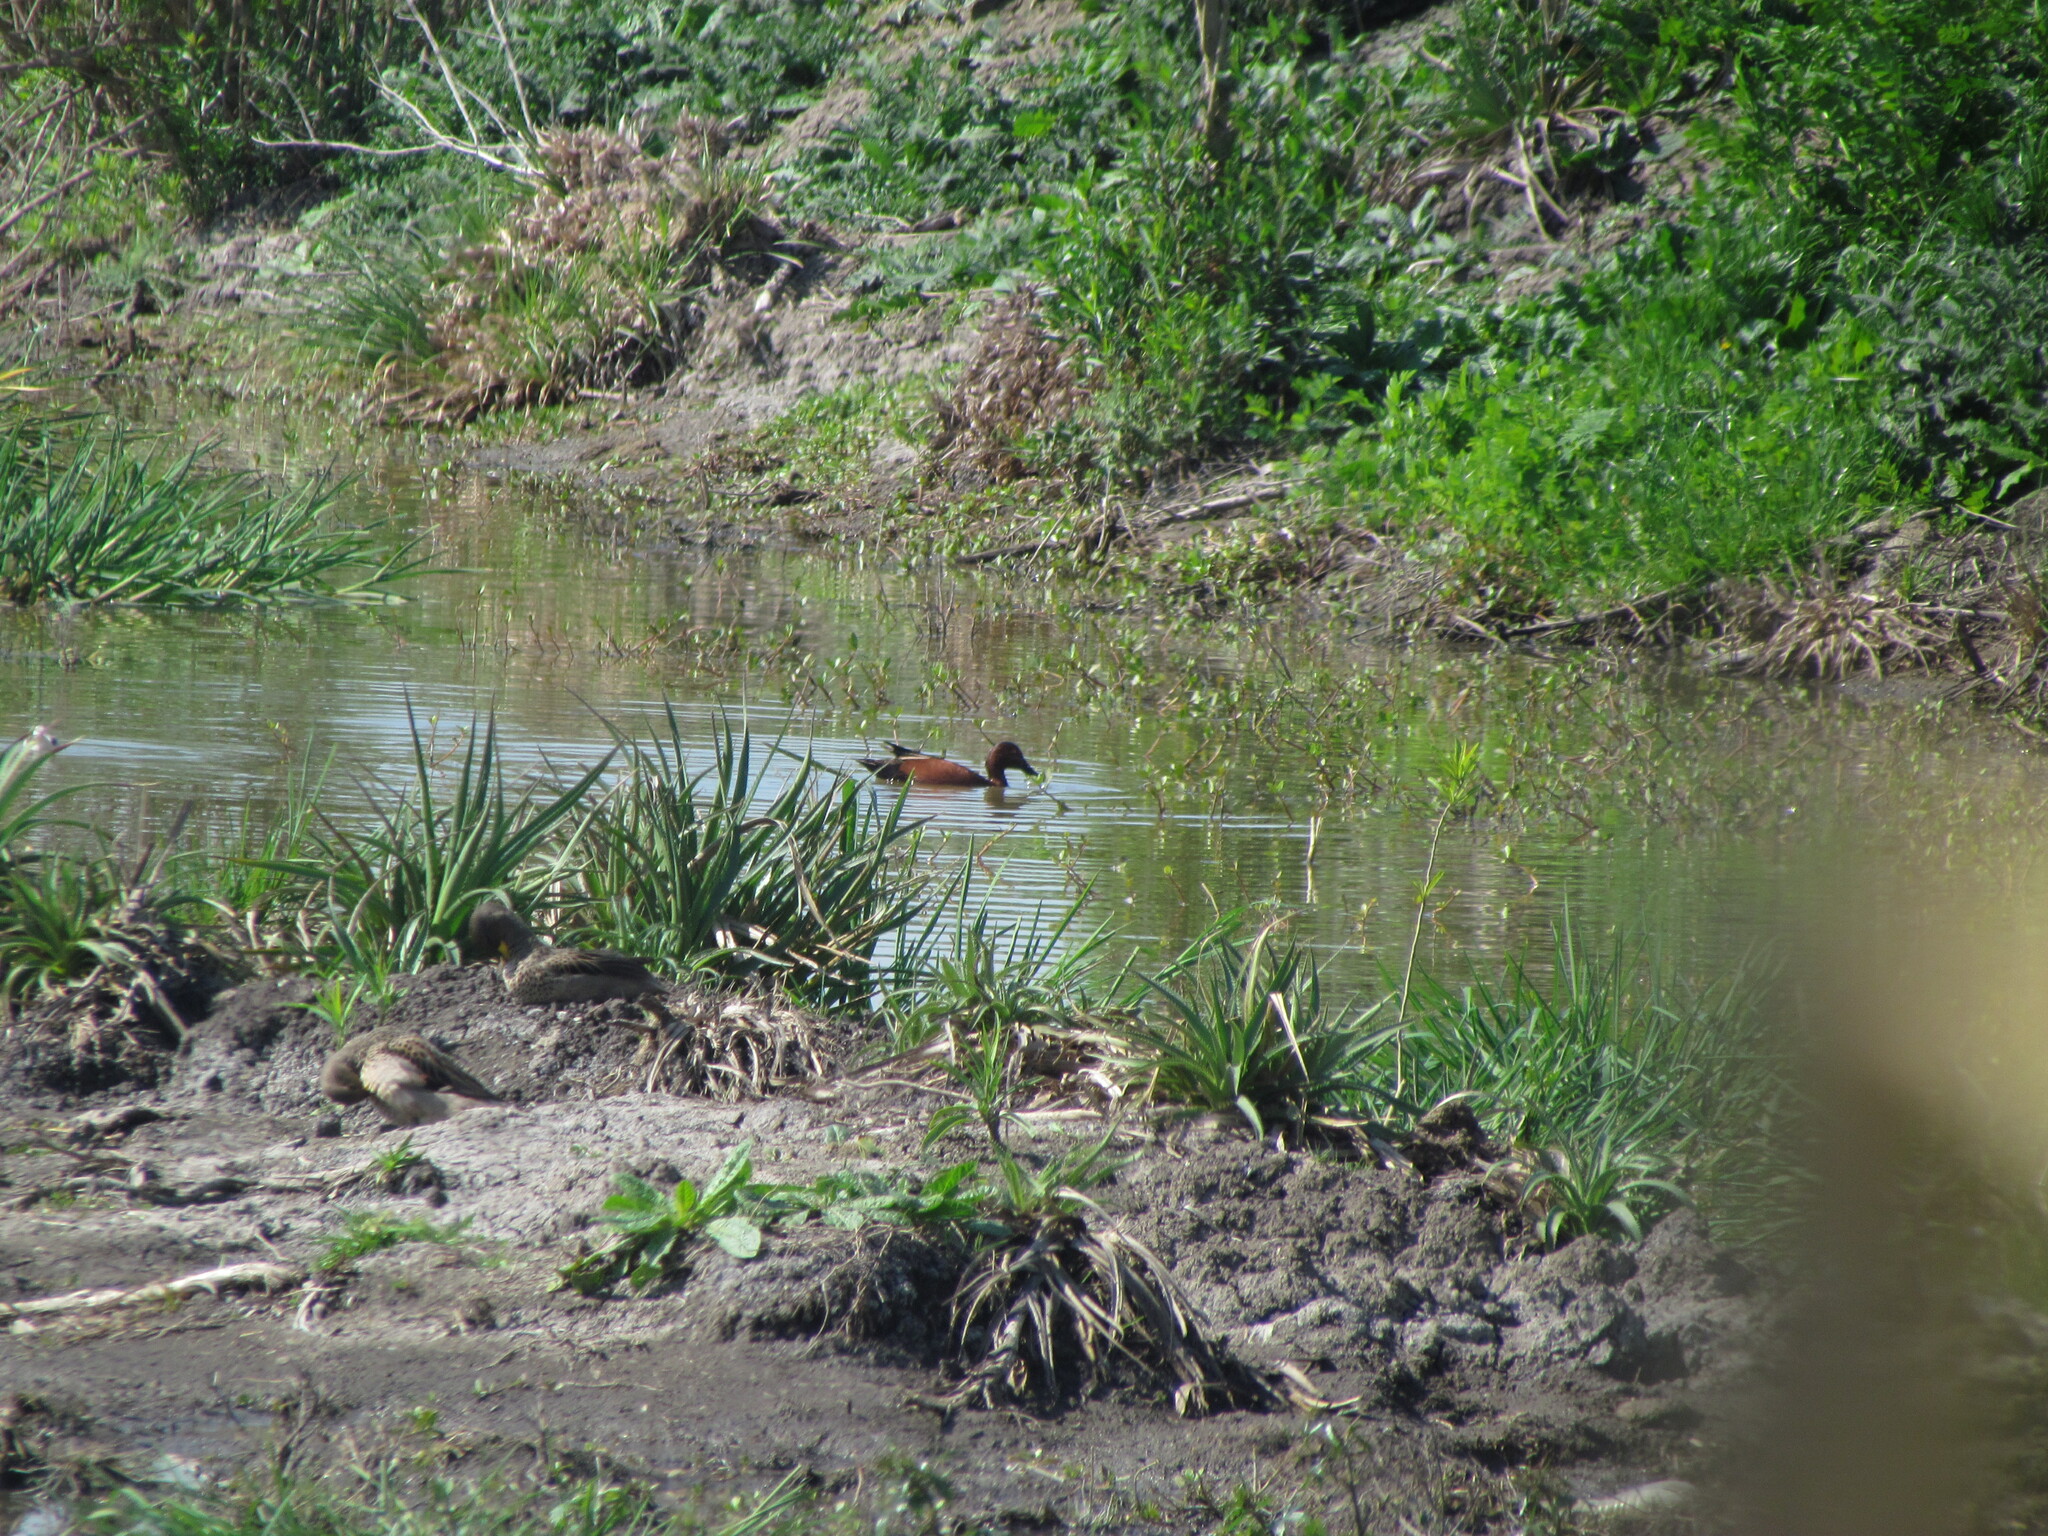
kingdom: Animalia
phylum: Chordata
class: Aves
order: Anseriformes
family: Anatidae
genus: Spatula
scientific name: Spatula cyanoptera
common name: Cinnamon teal
